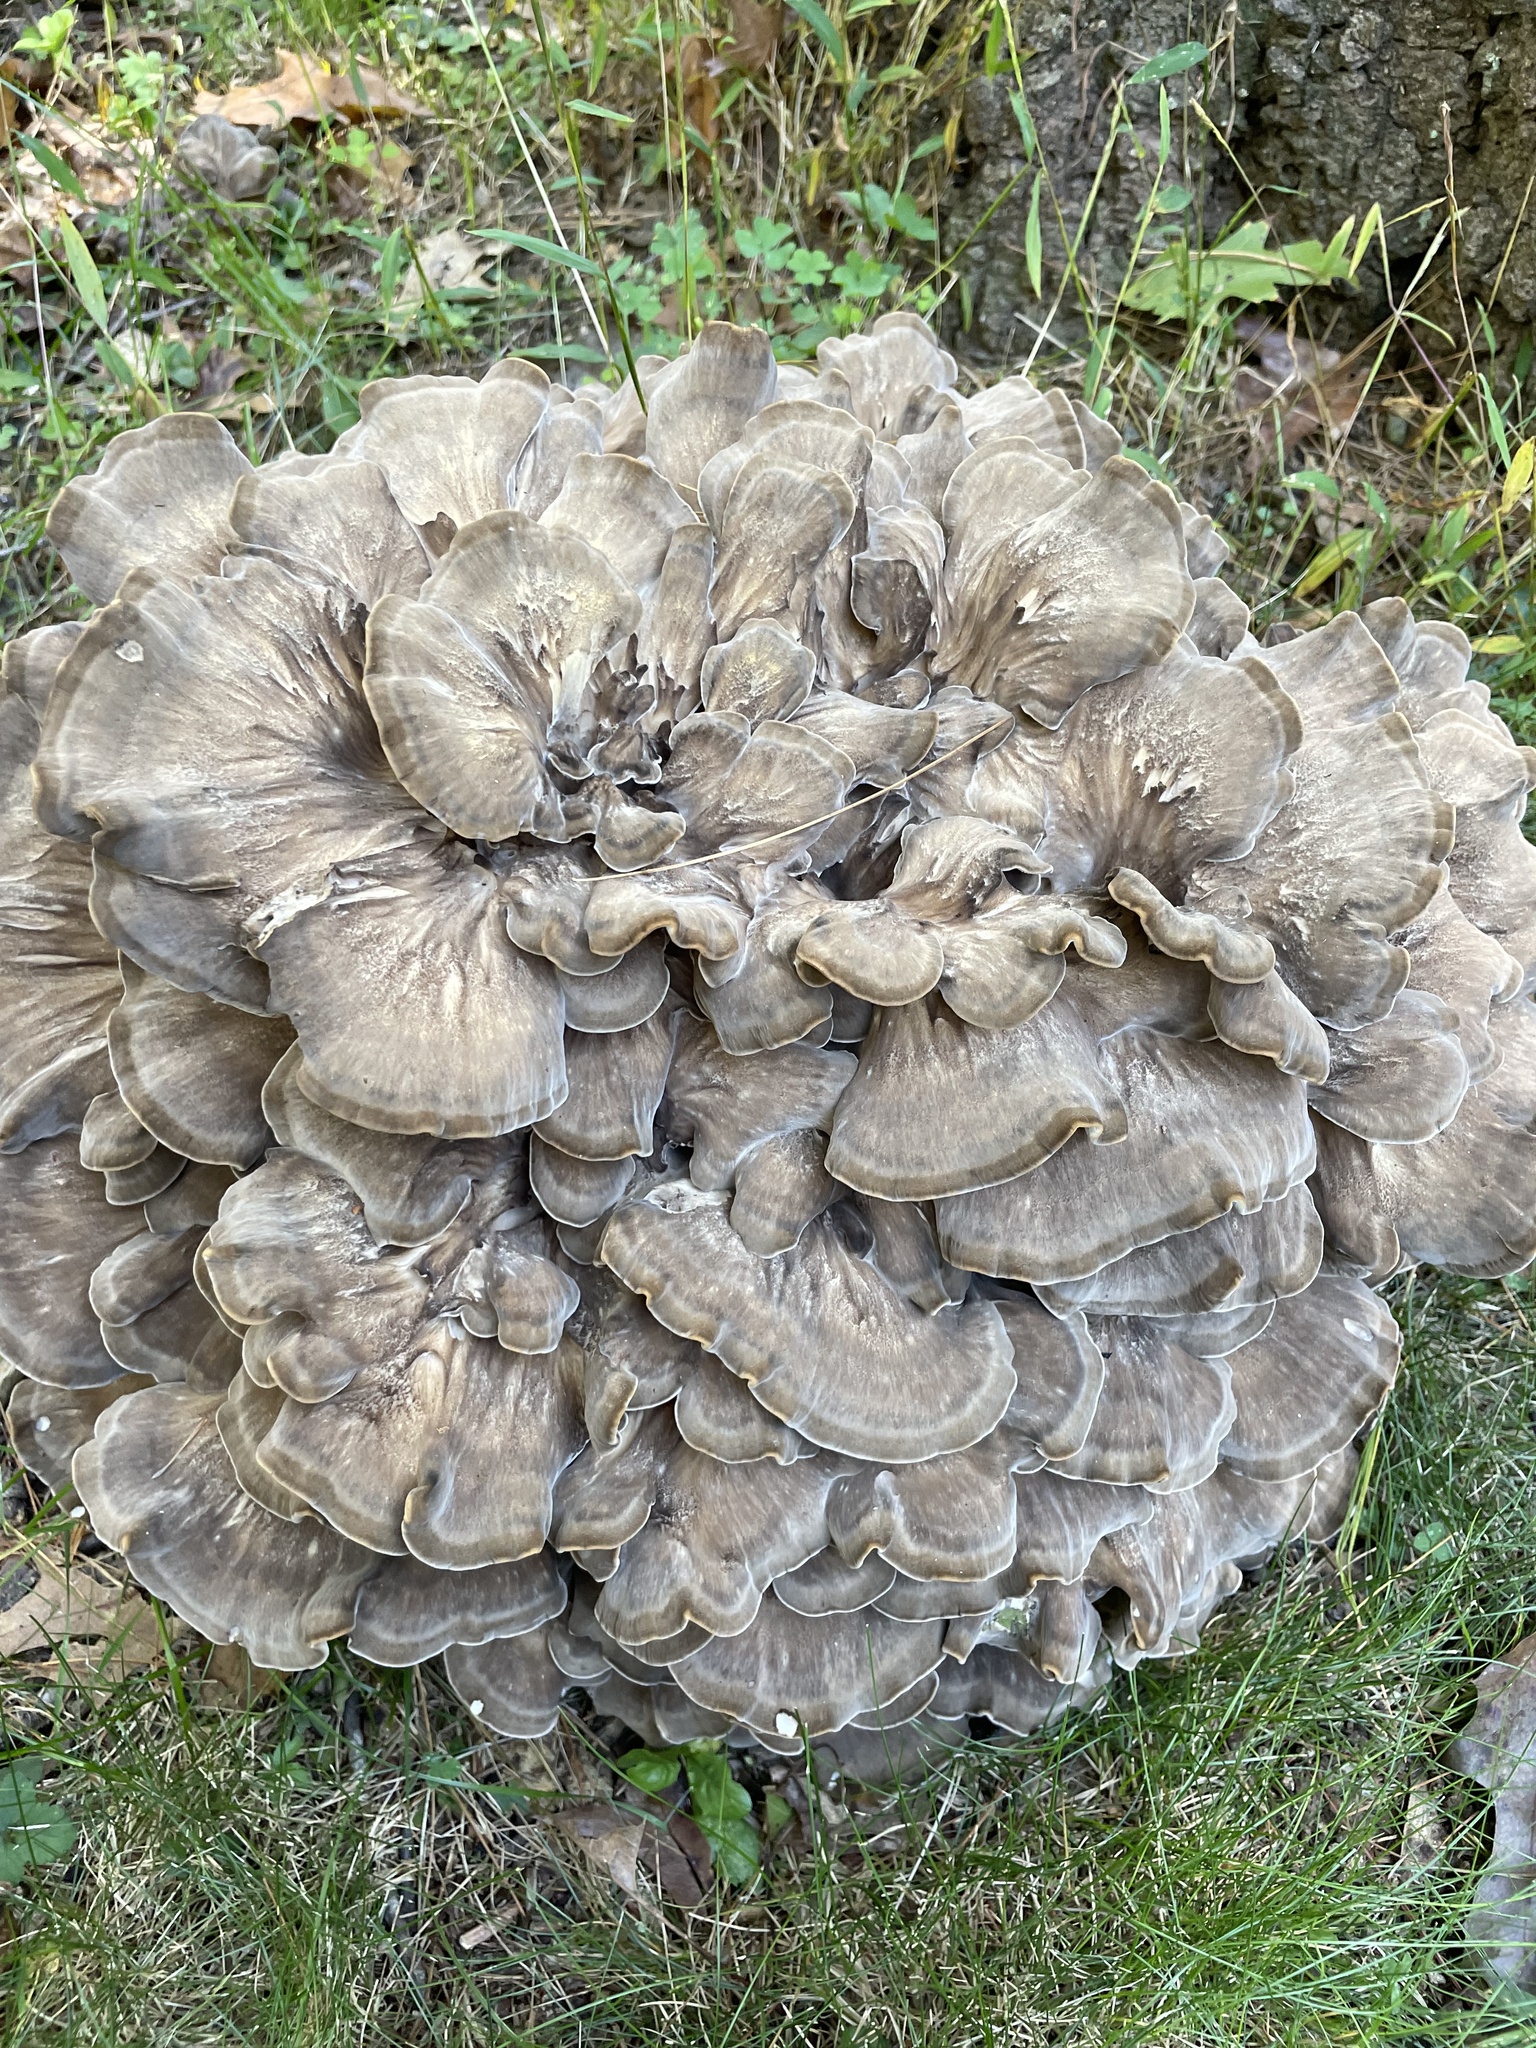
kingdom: Fungi
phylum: Basidiomycota
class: Agaricomycetes
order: Polyporales
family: Grifolaceae
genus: Grifola
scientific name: Grifola frondosa
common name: Hen of the woods
